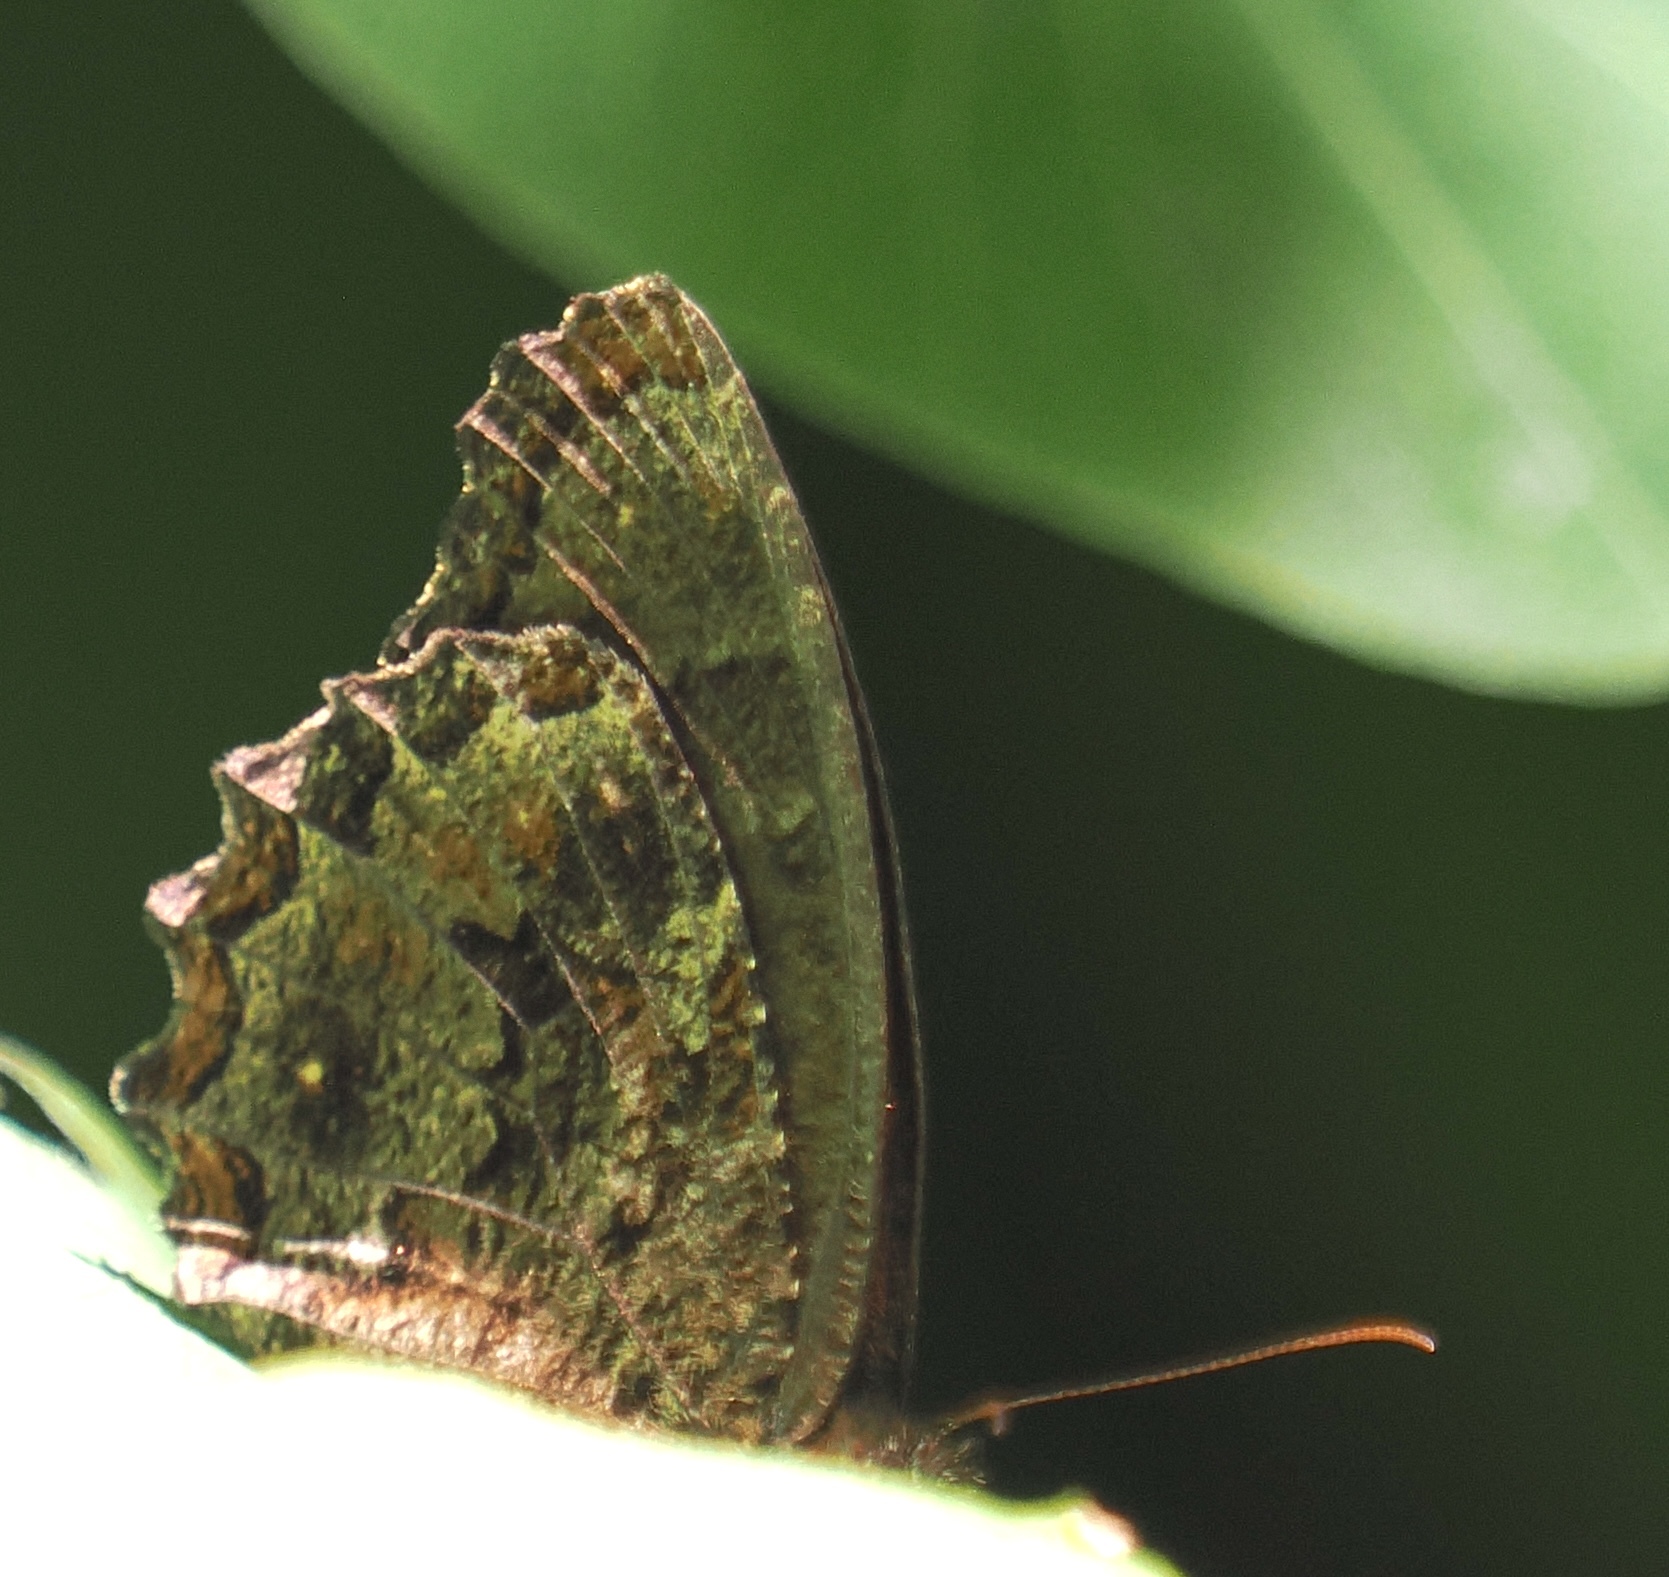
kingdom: Animalia
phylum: Arthropoda
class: Insecta
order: Lepidoptera
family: Nymphalidae
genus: Praepedaliodes
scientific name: Praepedaliodes phanias
